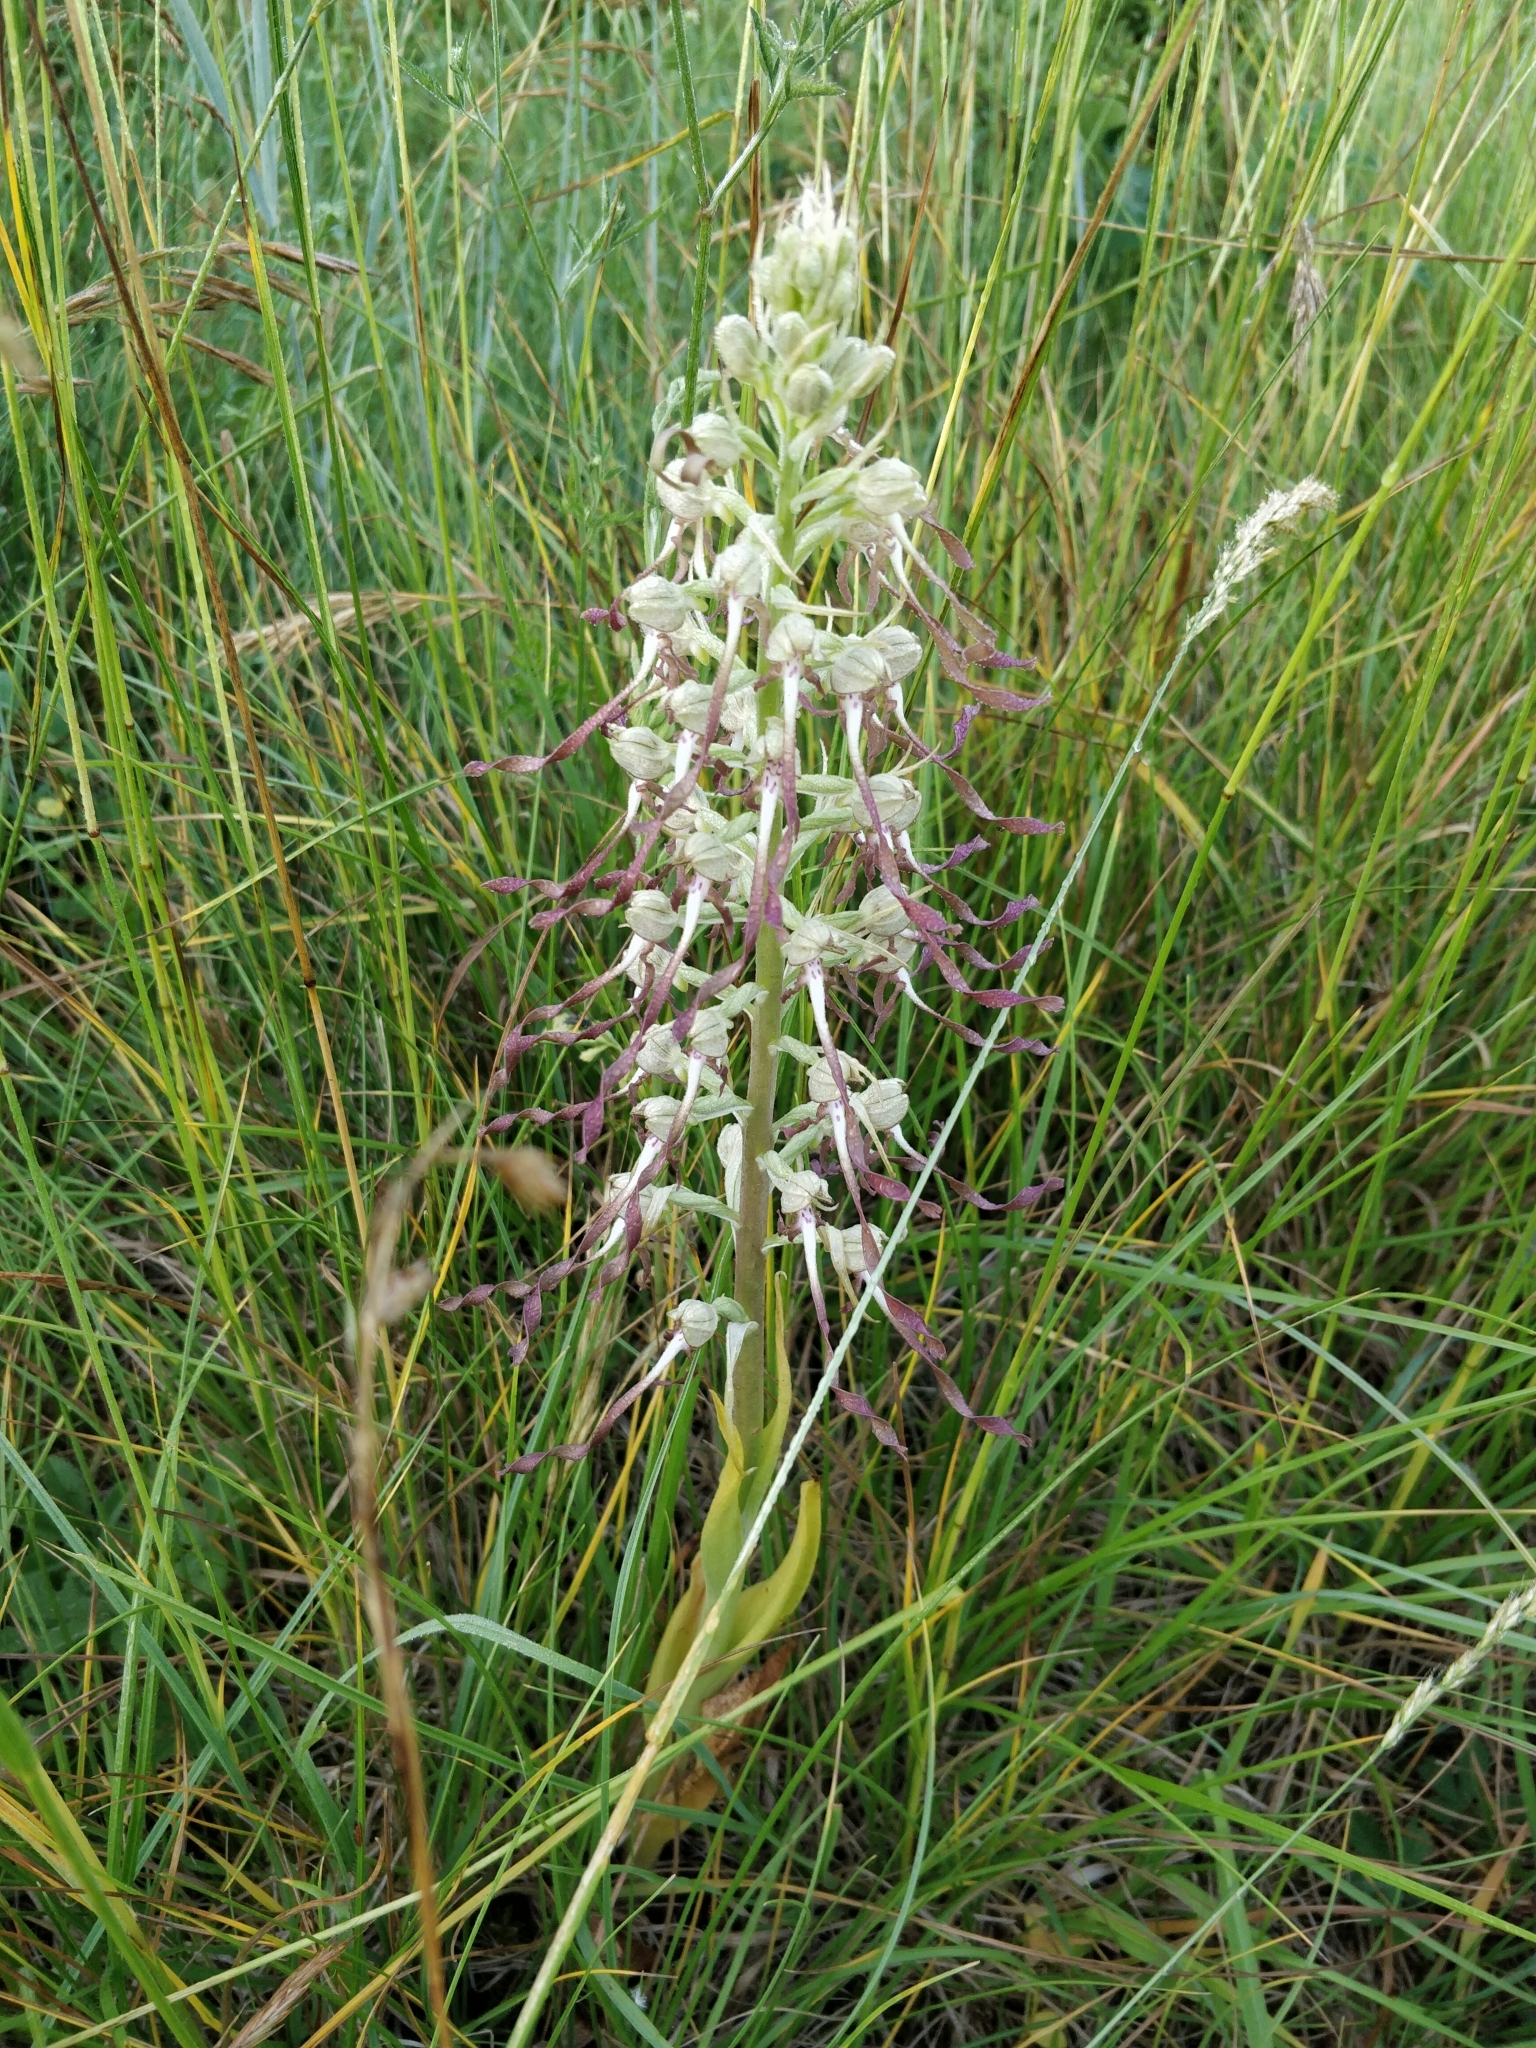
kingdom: Plantae
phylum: Tracheophyta
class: Liliopsida
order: Asparagales
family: Orchidaceae
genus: Himantoglossum
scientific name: Himantoglossum hircinum
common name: Lizard orchid
